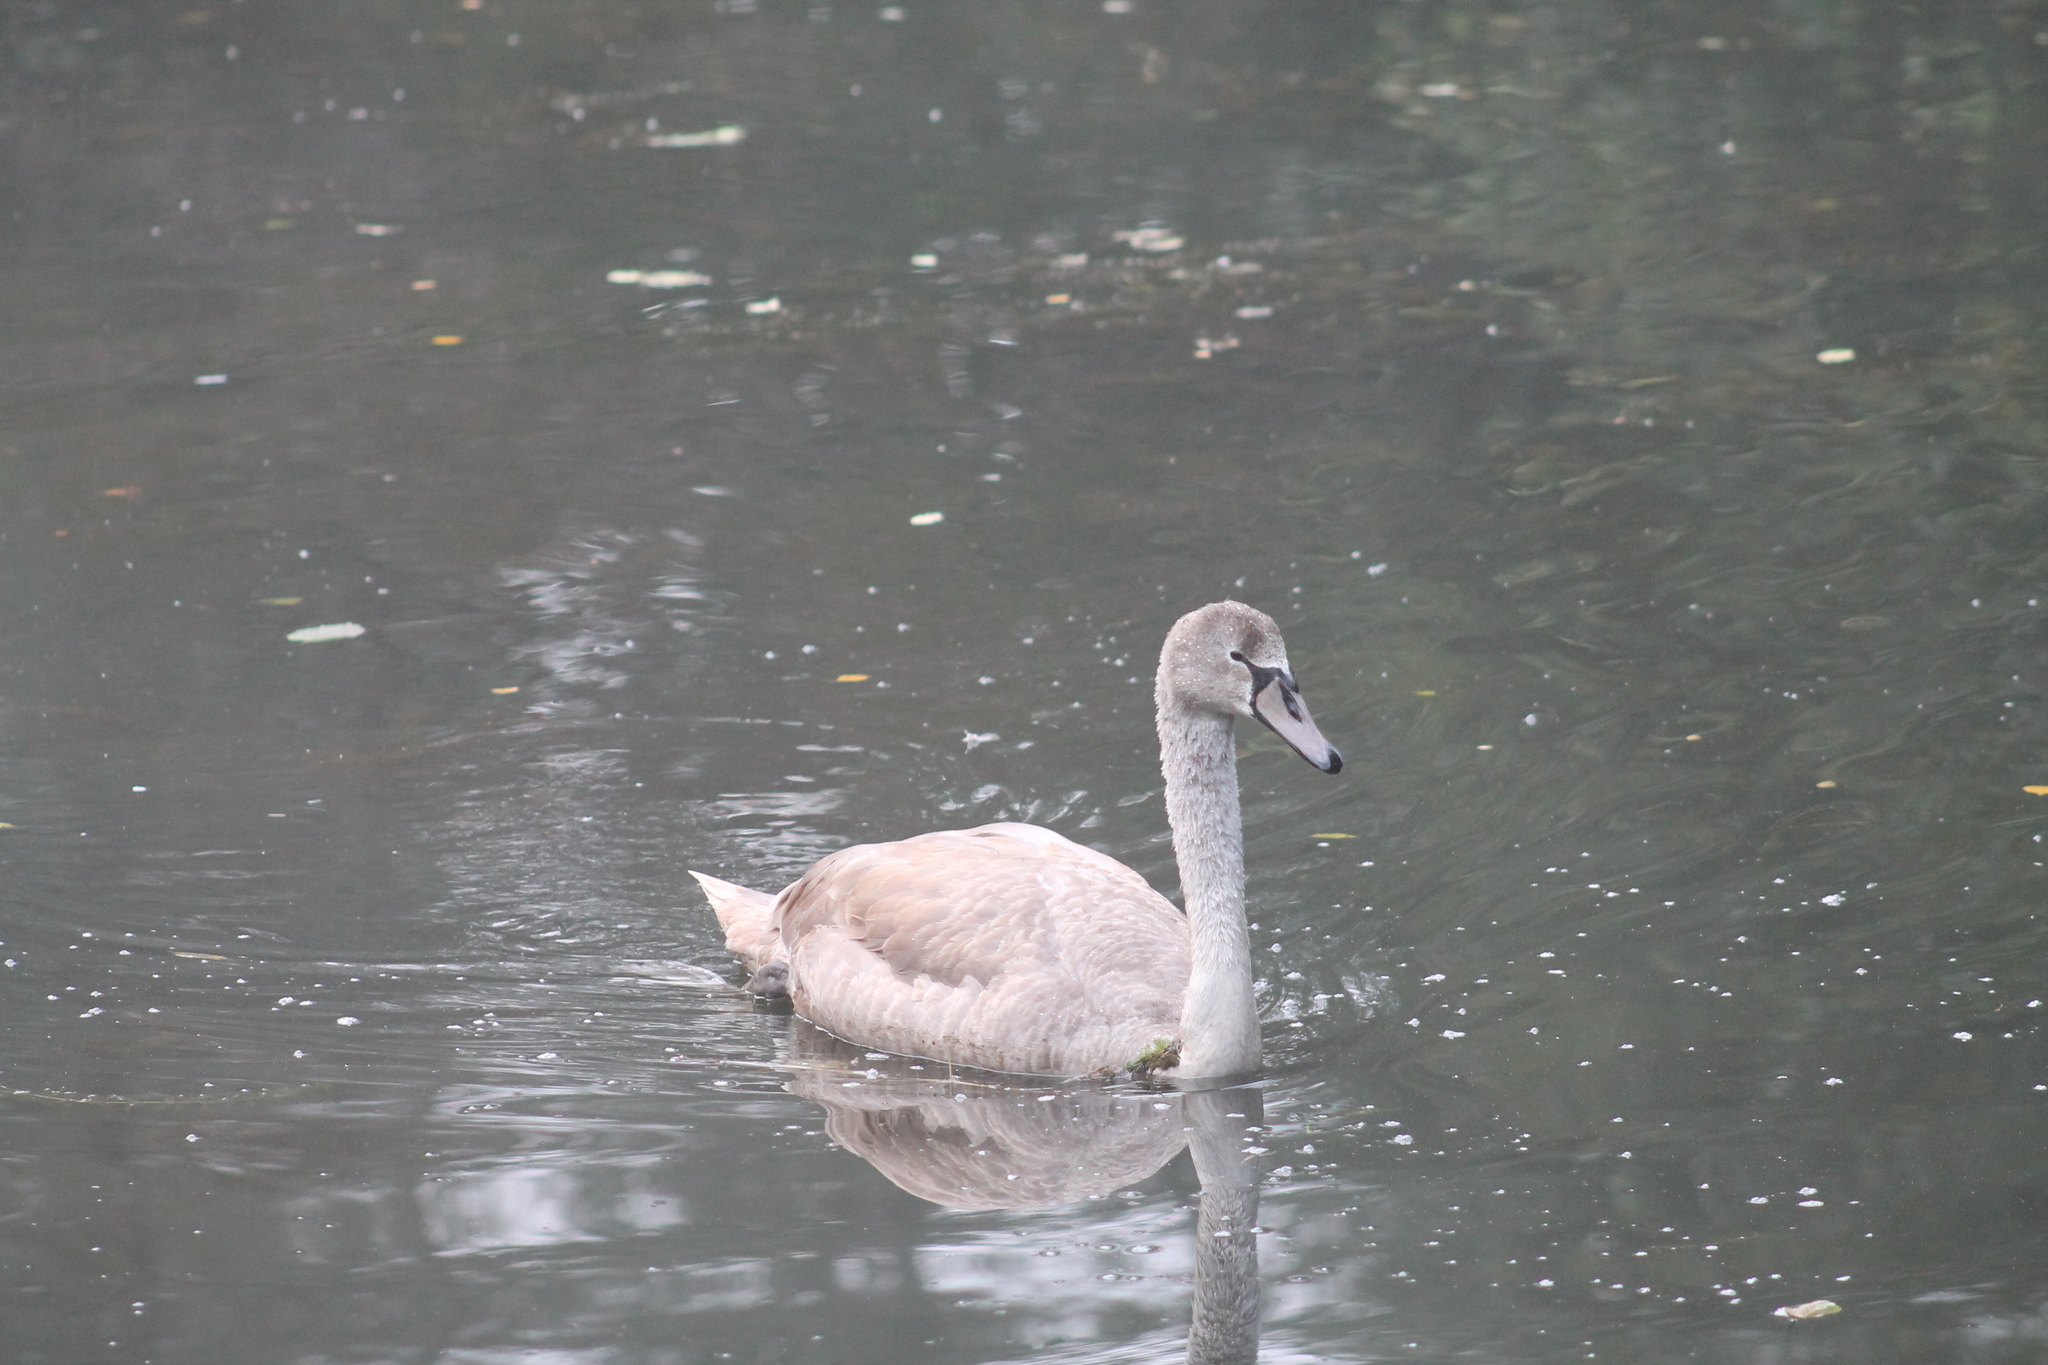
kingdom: Animalia
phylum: Chordata
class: Aves
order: Anseriformes
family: Anatidae
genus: Cygnus
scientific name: Cygnus olor
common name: Mute swan
